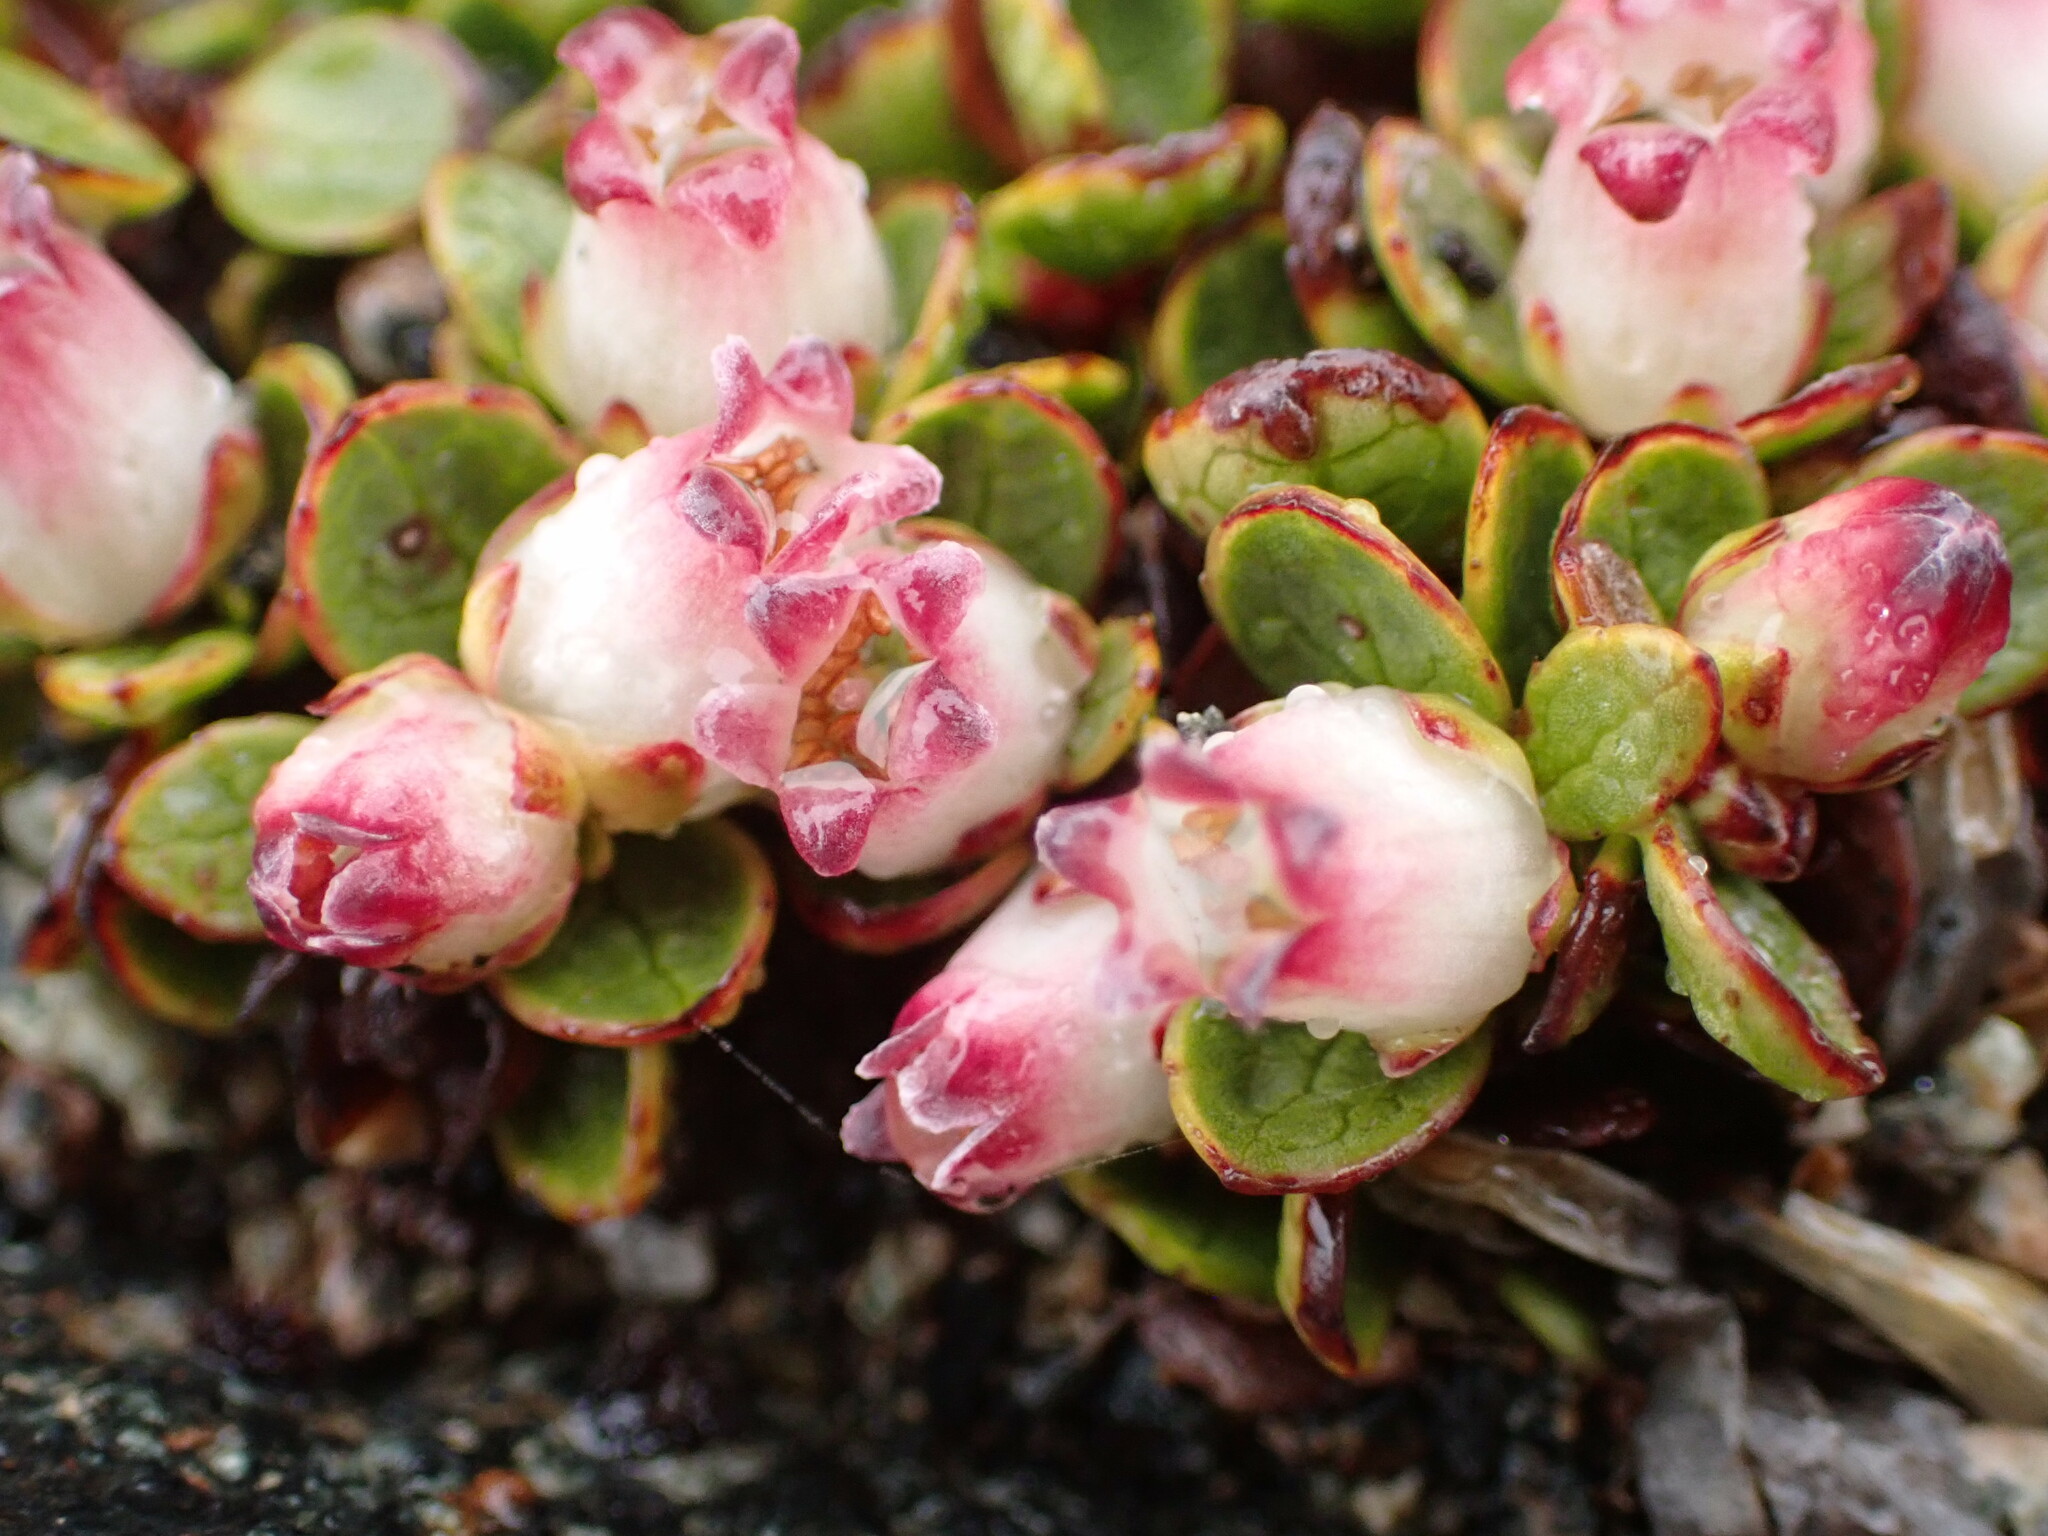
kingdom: Plantae
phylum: Tracheophyta
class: Magnoliopsida
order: Ericales
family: Ericaceae
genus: Gaultheria
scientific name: Gaultheria nubicola
